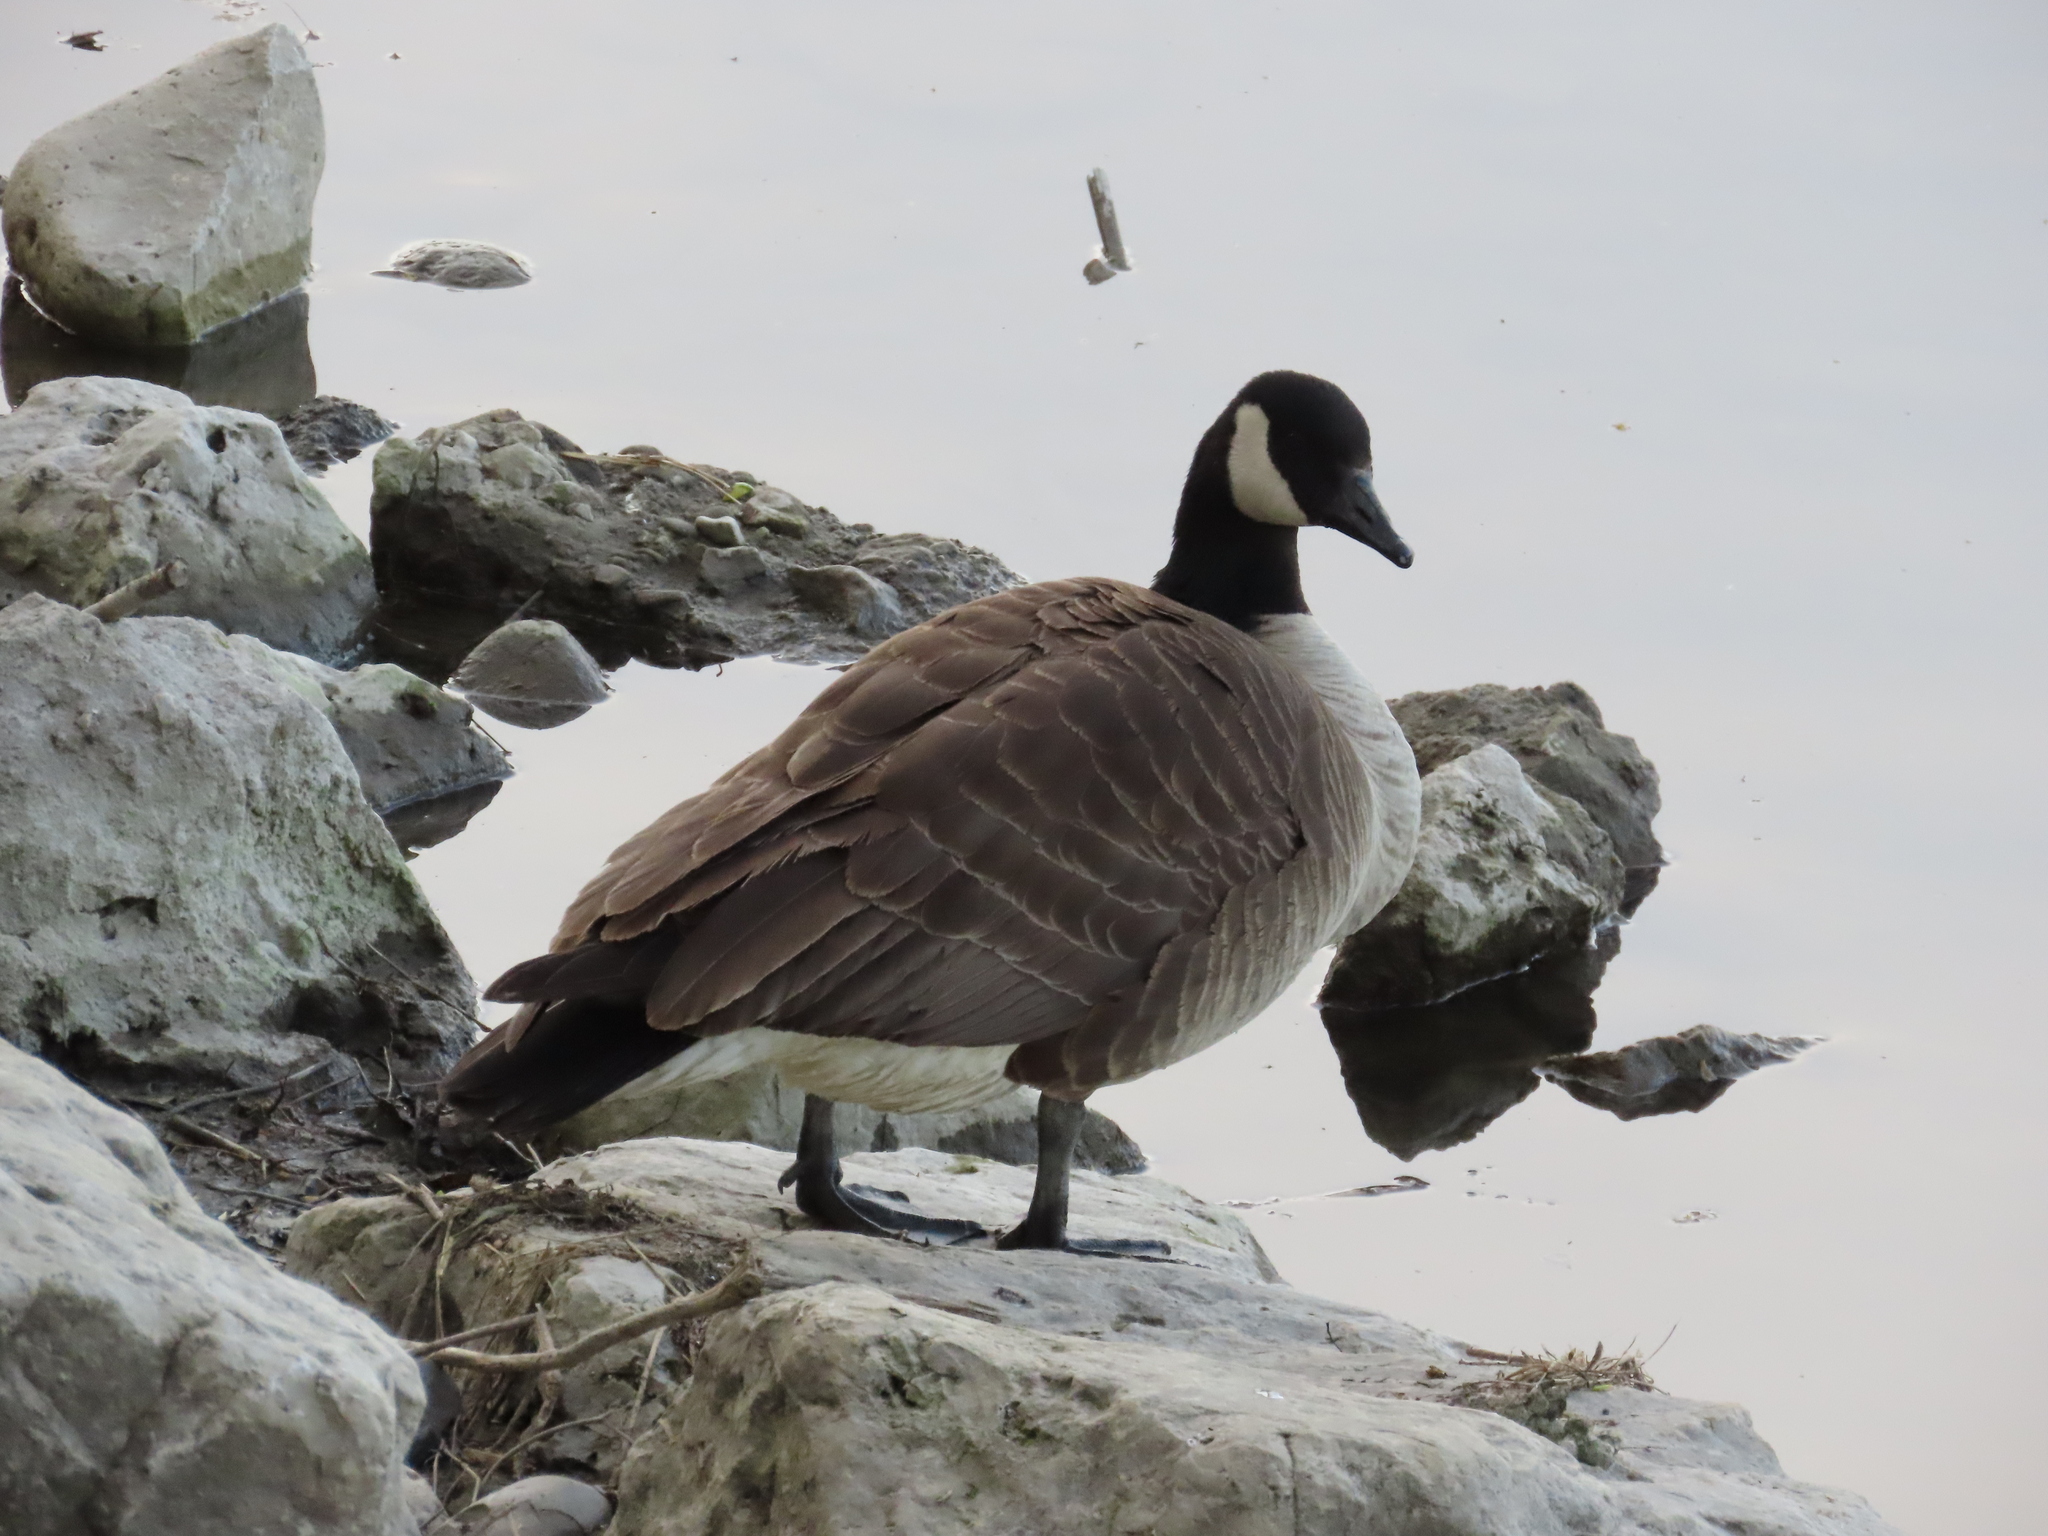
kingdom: Animalia
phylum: Chordata
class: Aves
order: Anseriformes
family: Anatidae
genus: Branta
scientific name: Branta canadensis
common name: Canada goose
